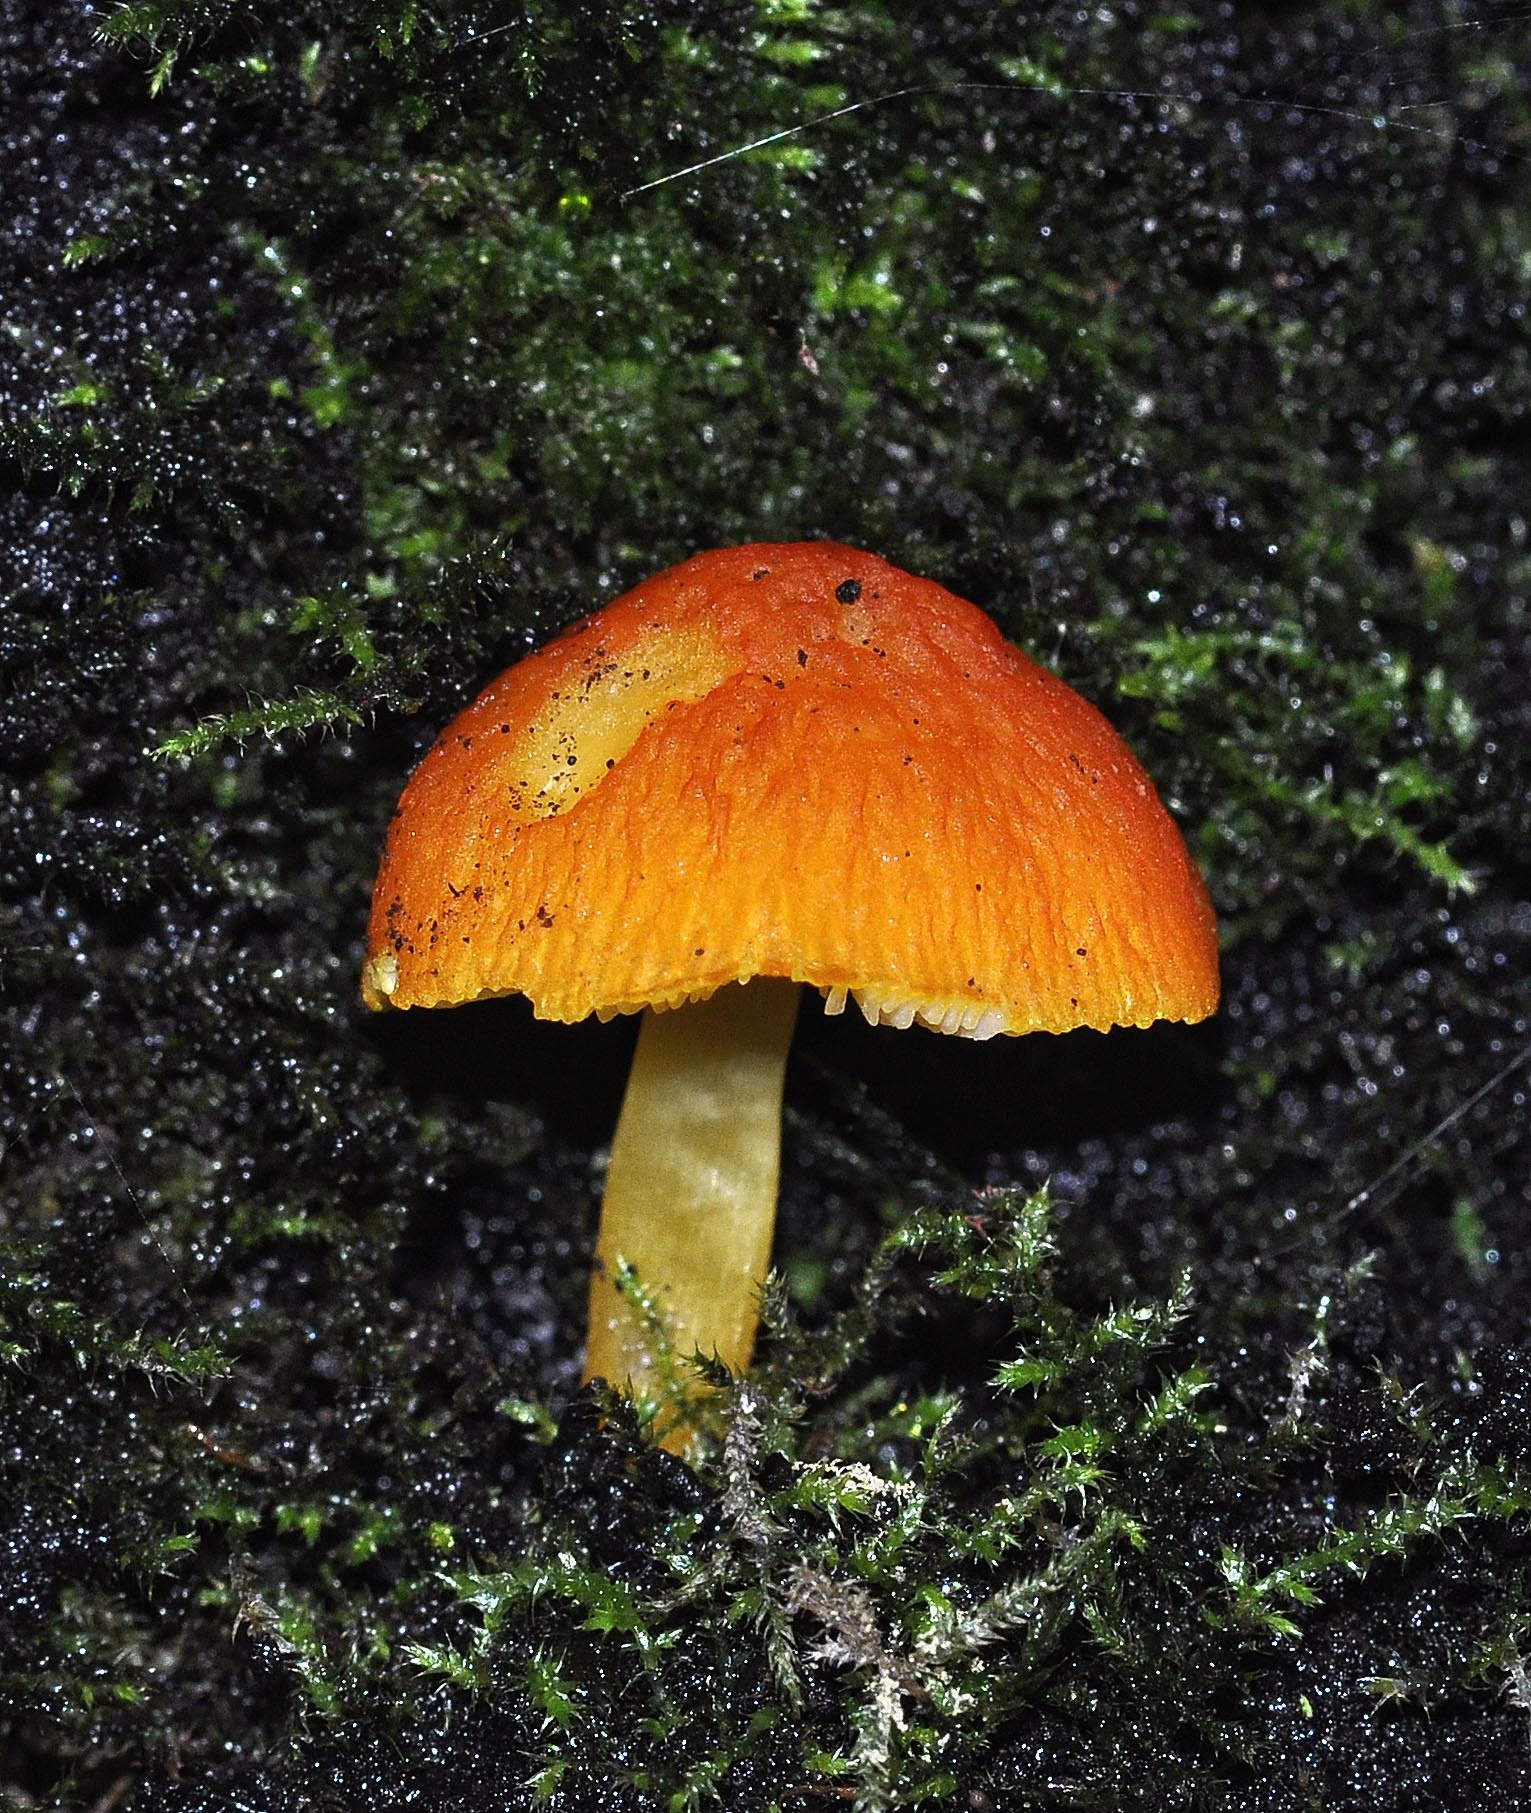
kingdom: Fungi
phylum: Basidiomycota
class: Agaricomycetes
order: Agaricales
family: Pluteaceae
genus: Pluteus
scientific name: Pluteus aurantiorugosus
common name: Flame shield
